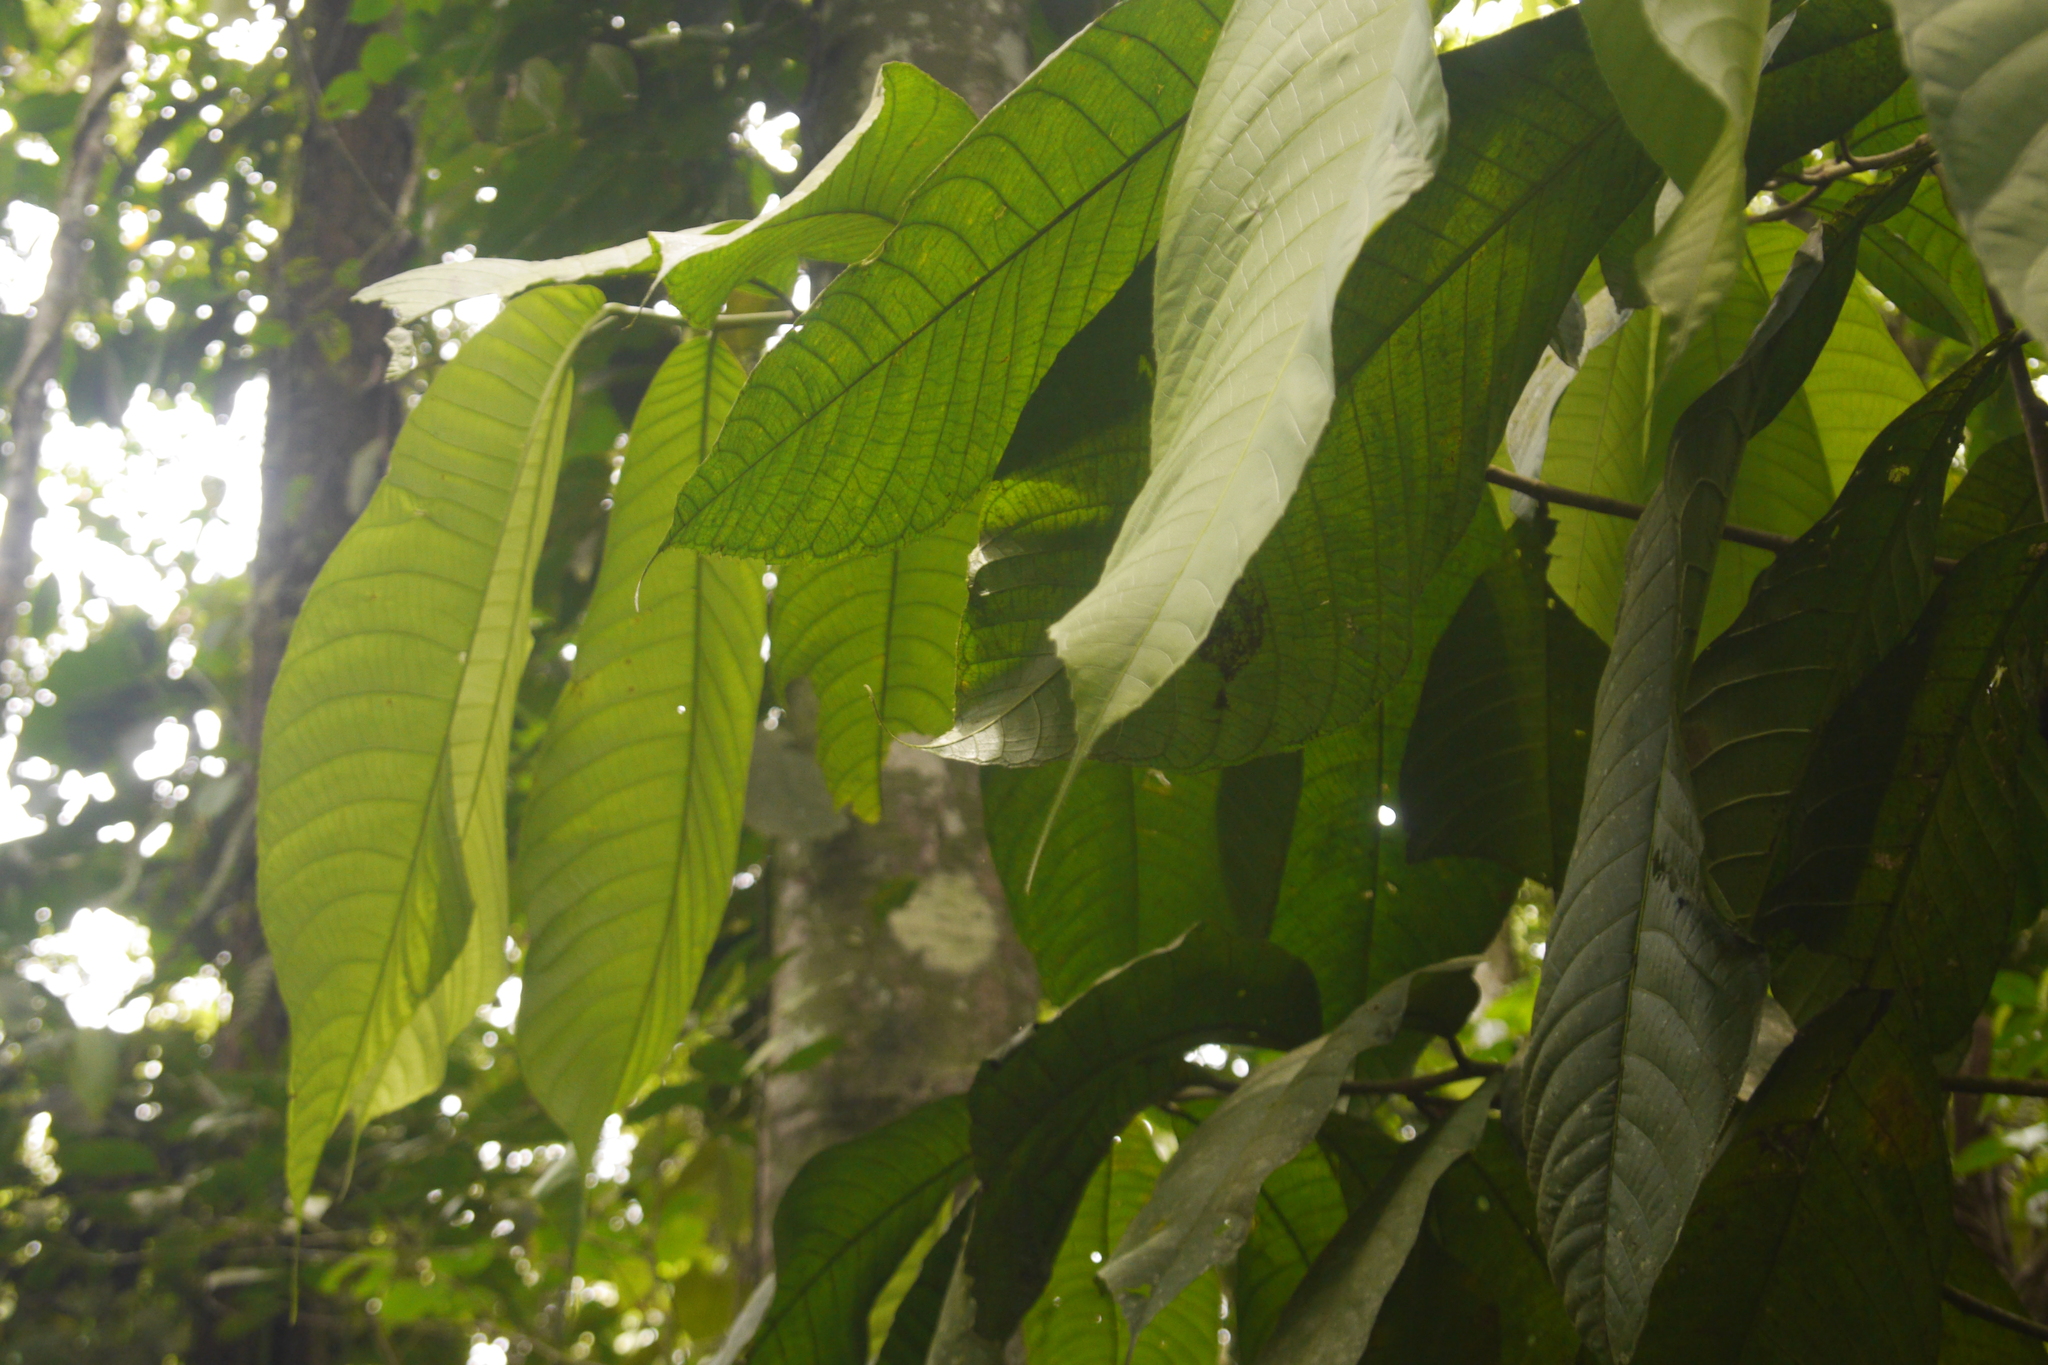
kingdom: Plantae
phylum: Tracheophyta
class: Magnoliopsida
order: Rosales
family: Moraceae
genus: Perebea
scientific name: Perebea xanthochyma
